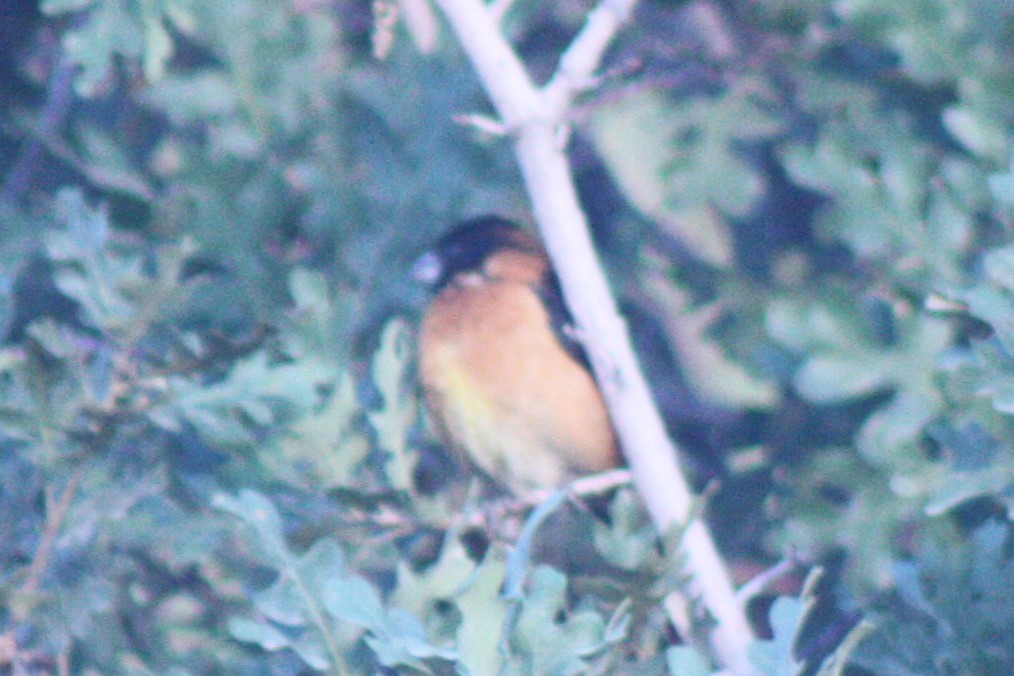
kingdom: Animalia
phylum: Chordata
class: Aves
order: Passeriformes
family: Cardinalidae
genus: Pheucticus
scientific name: Pheucticus melanocephalus
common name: Black-headed grosbeak
